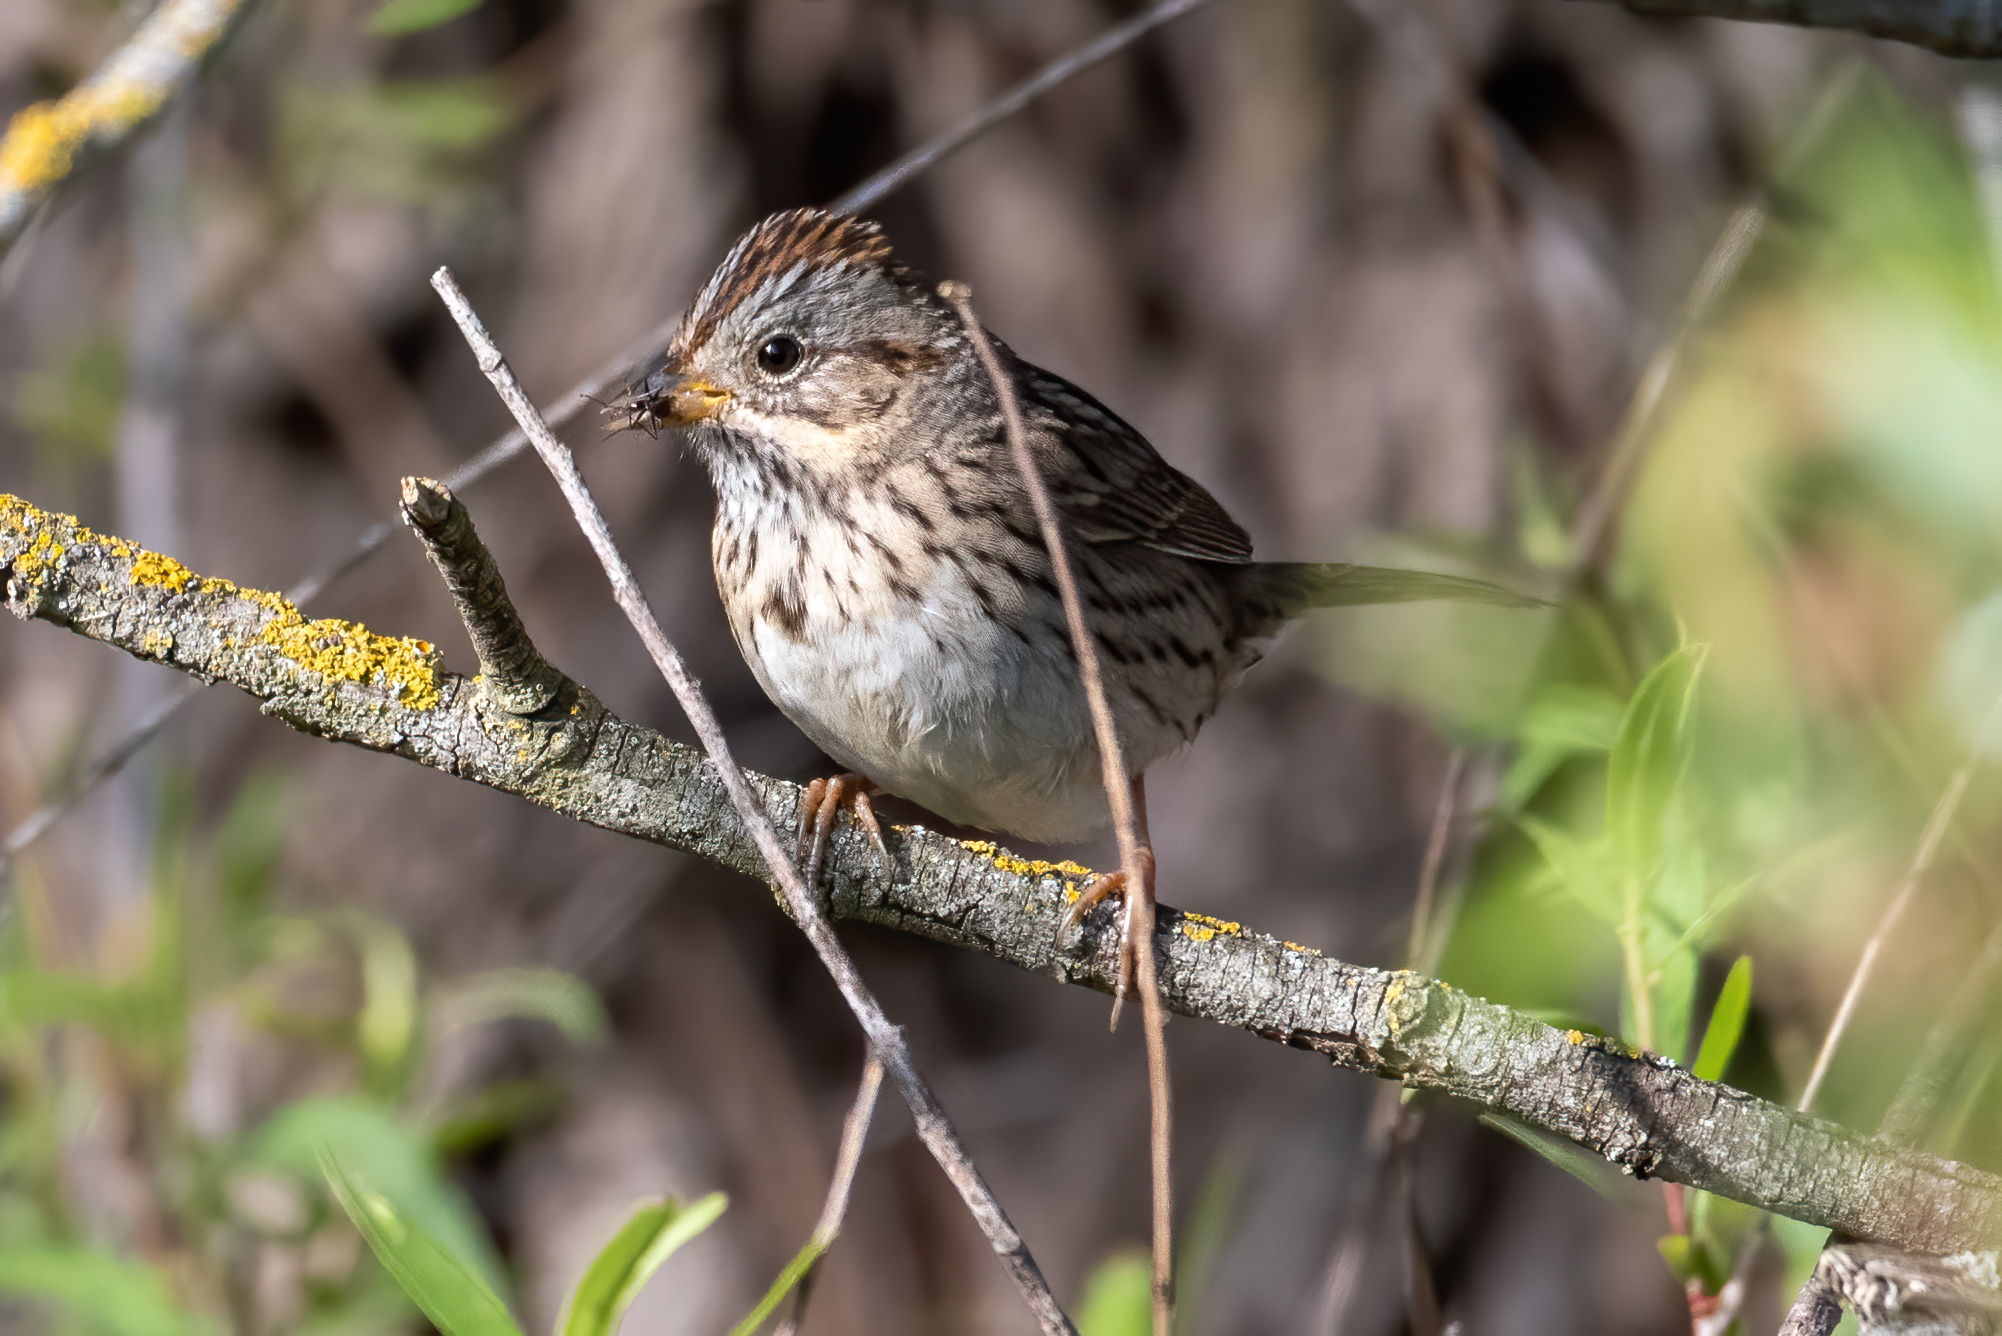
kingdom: Animalia
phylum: Chordata
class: Aves
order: Passeriformes
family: Passerellidae
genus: Melospiza
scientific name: Melospiza lincolnii
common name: Lincoln's sparrow
